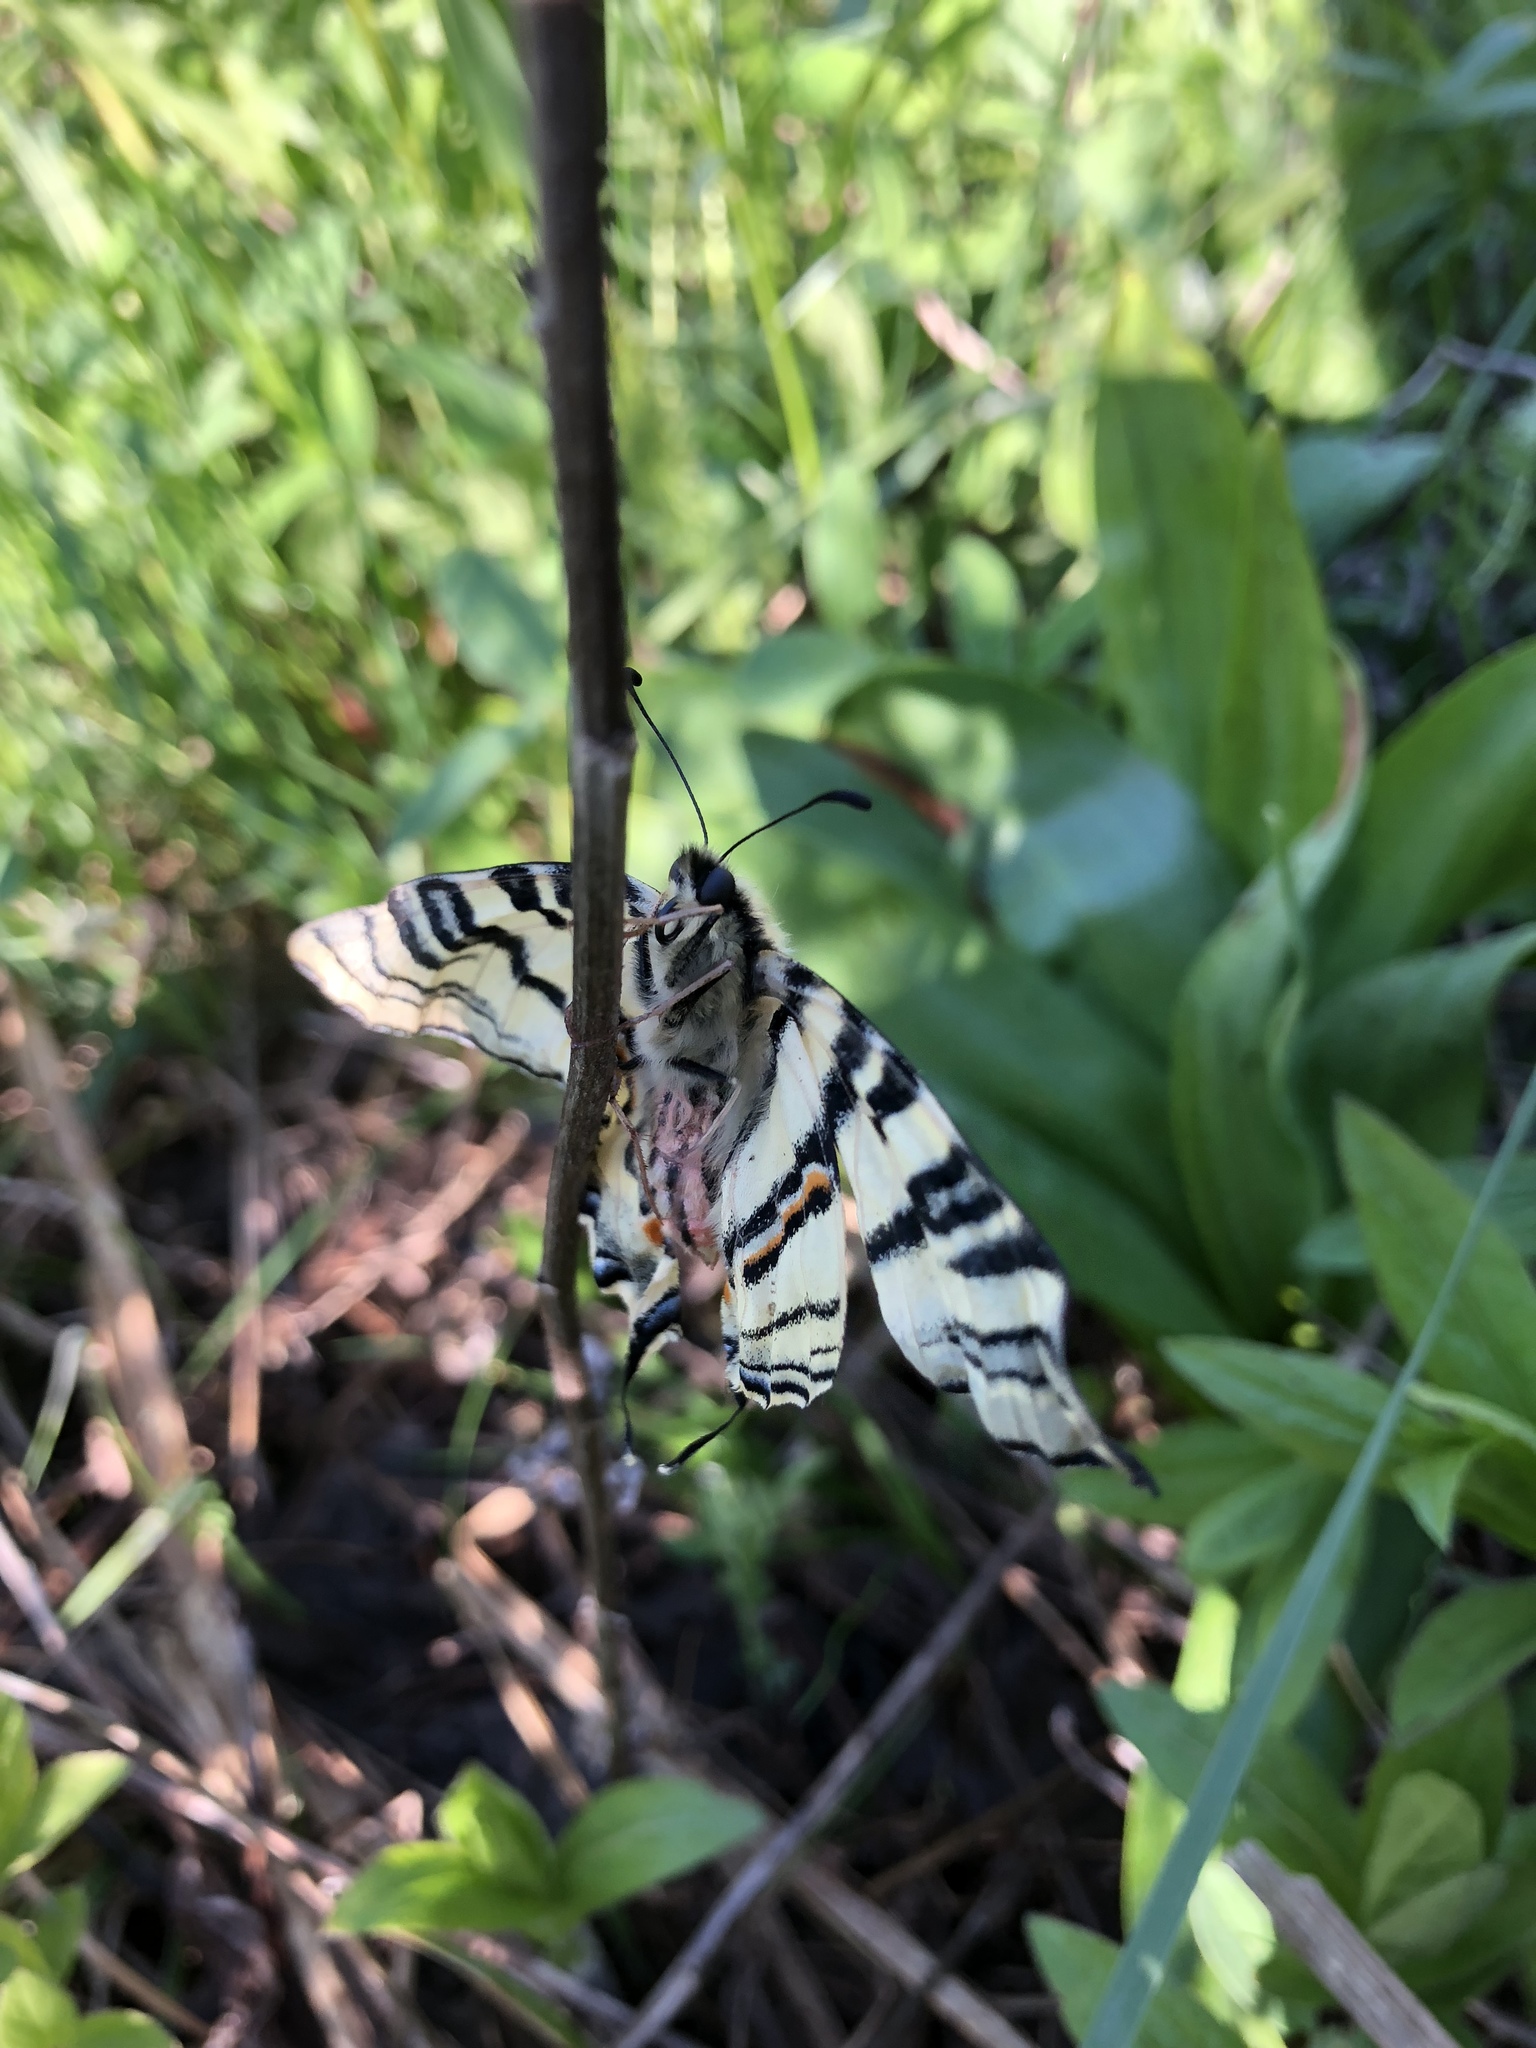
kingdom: Animalia
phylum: Arthropoda
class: Insecta
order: Lepidoptera
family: Papilionidae
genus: Iphiclides
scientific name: Iphiclides podalirius
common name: Scarce swallowtail
